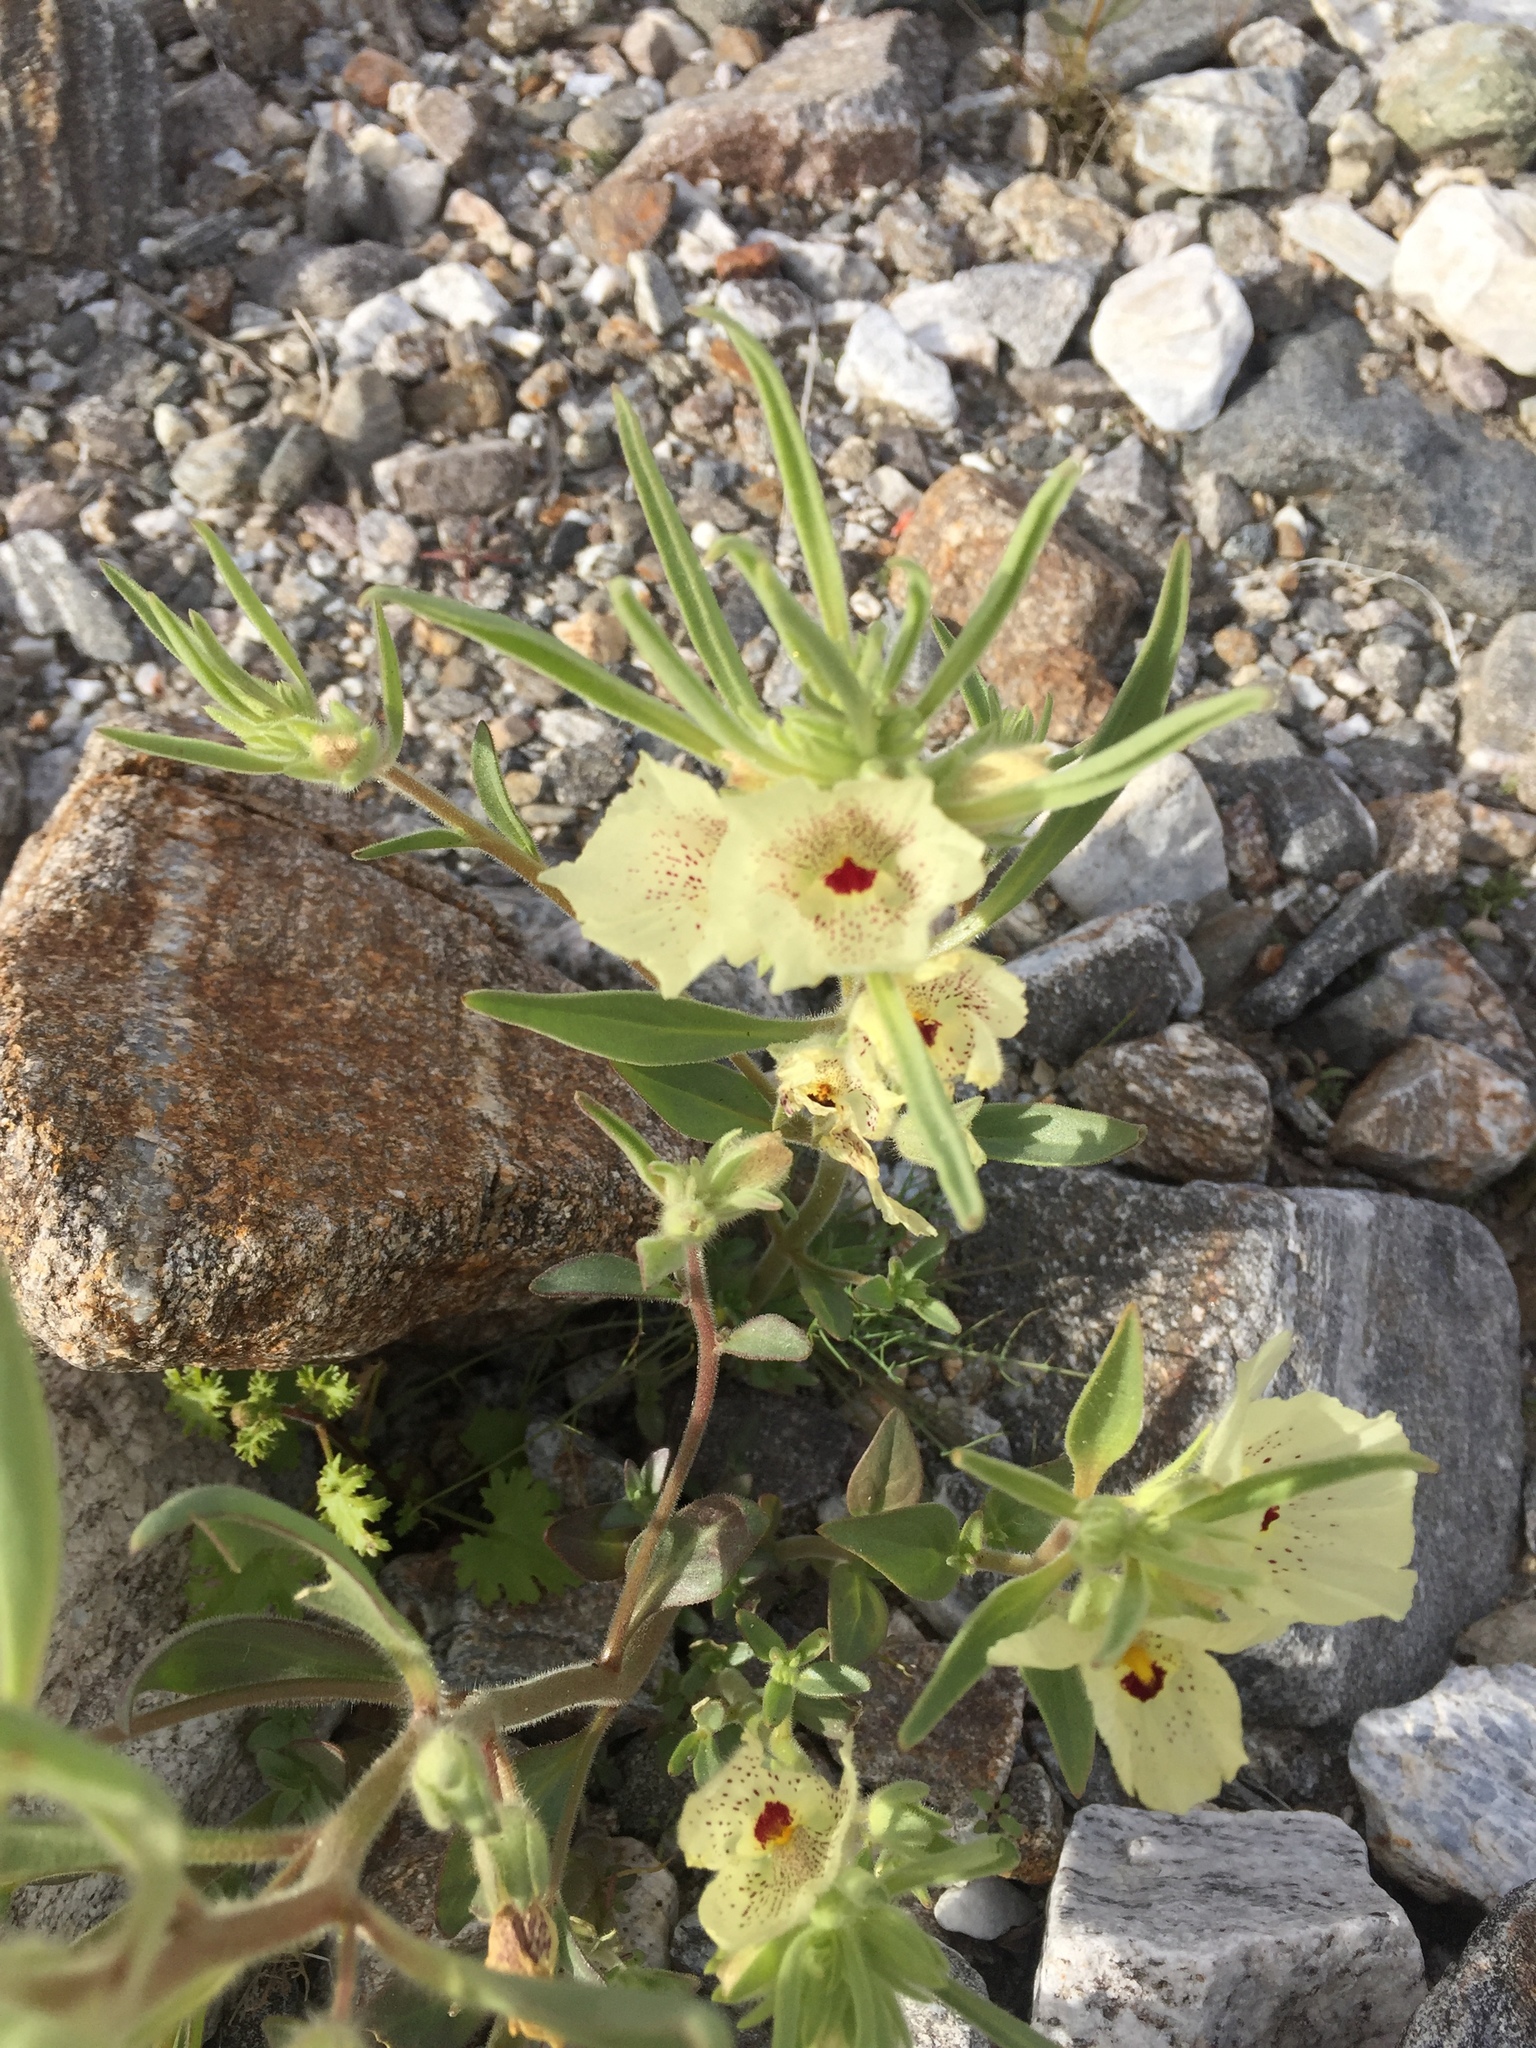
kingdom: Plantae
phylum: Tracheophyta
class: Magnoliopsida
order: Lamiales
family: Plantaginaceae
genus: Mohavea
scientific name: Mohavea confertiflora
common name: Ghost flower
